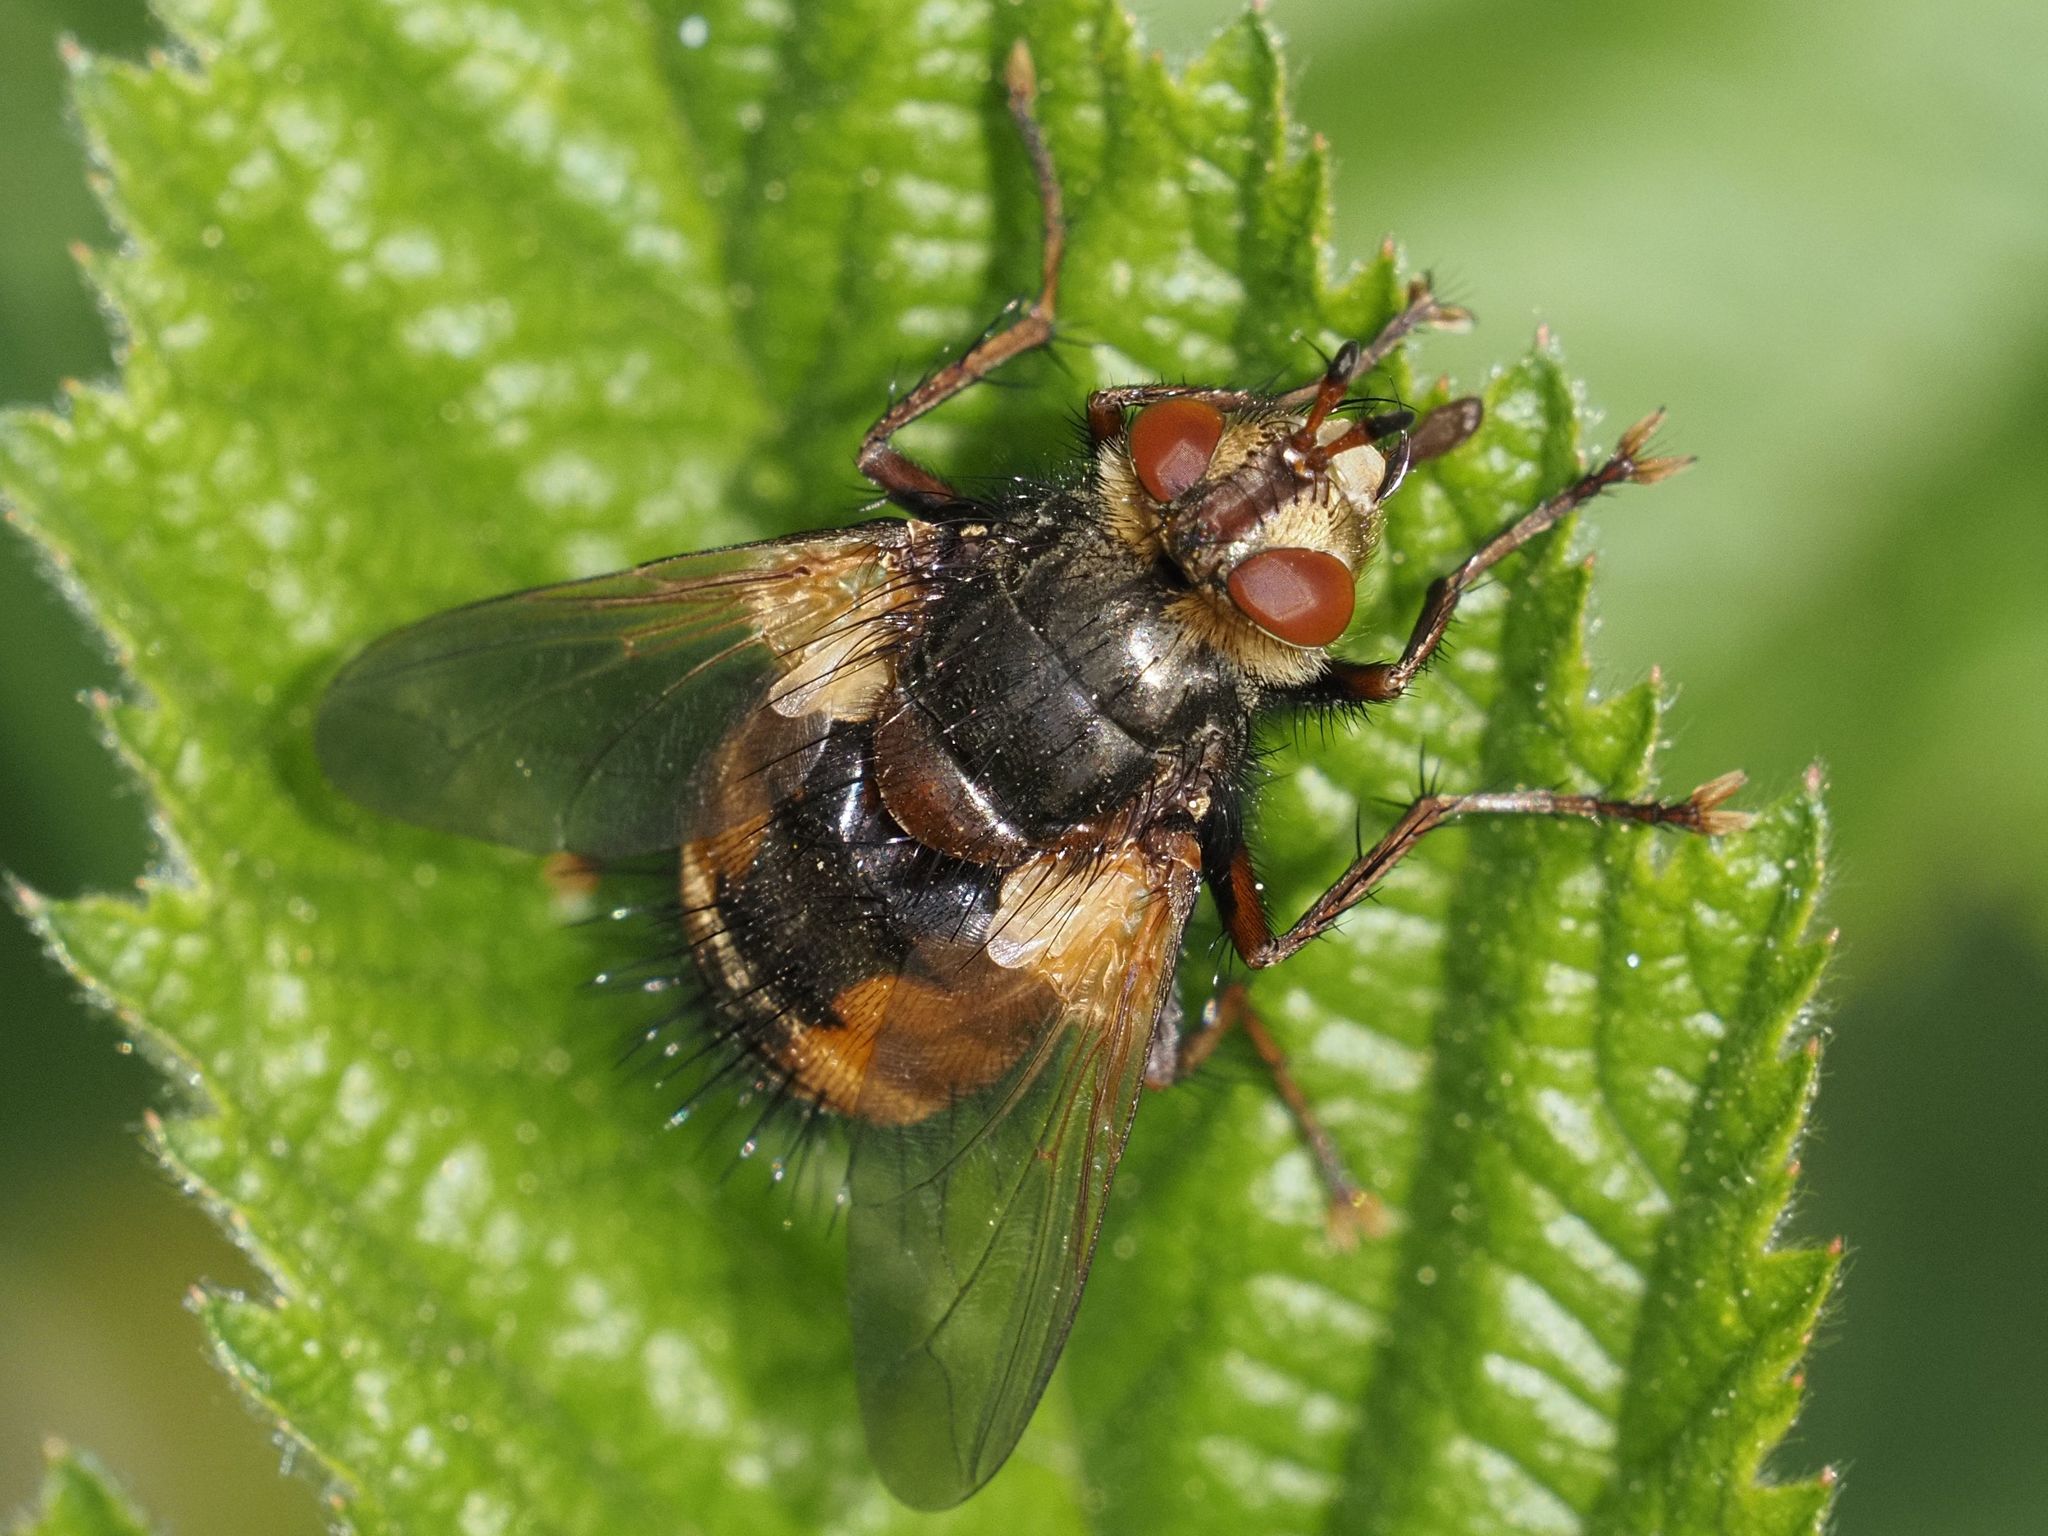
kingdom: Animalia
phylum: Arthropoda
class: Insecta
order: Diptera
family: Tachinidae
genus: Tachina
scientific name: Tachina fera
